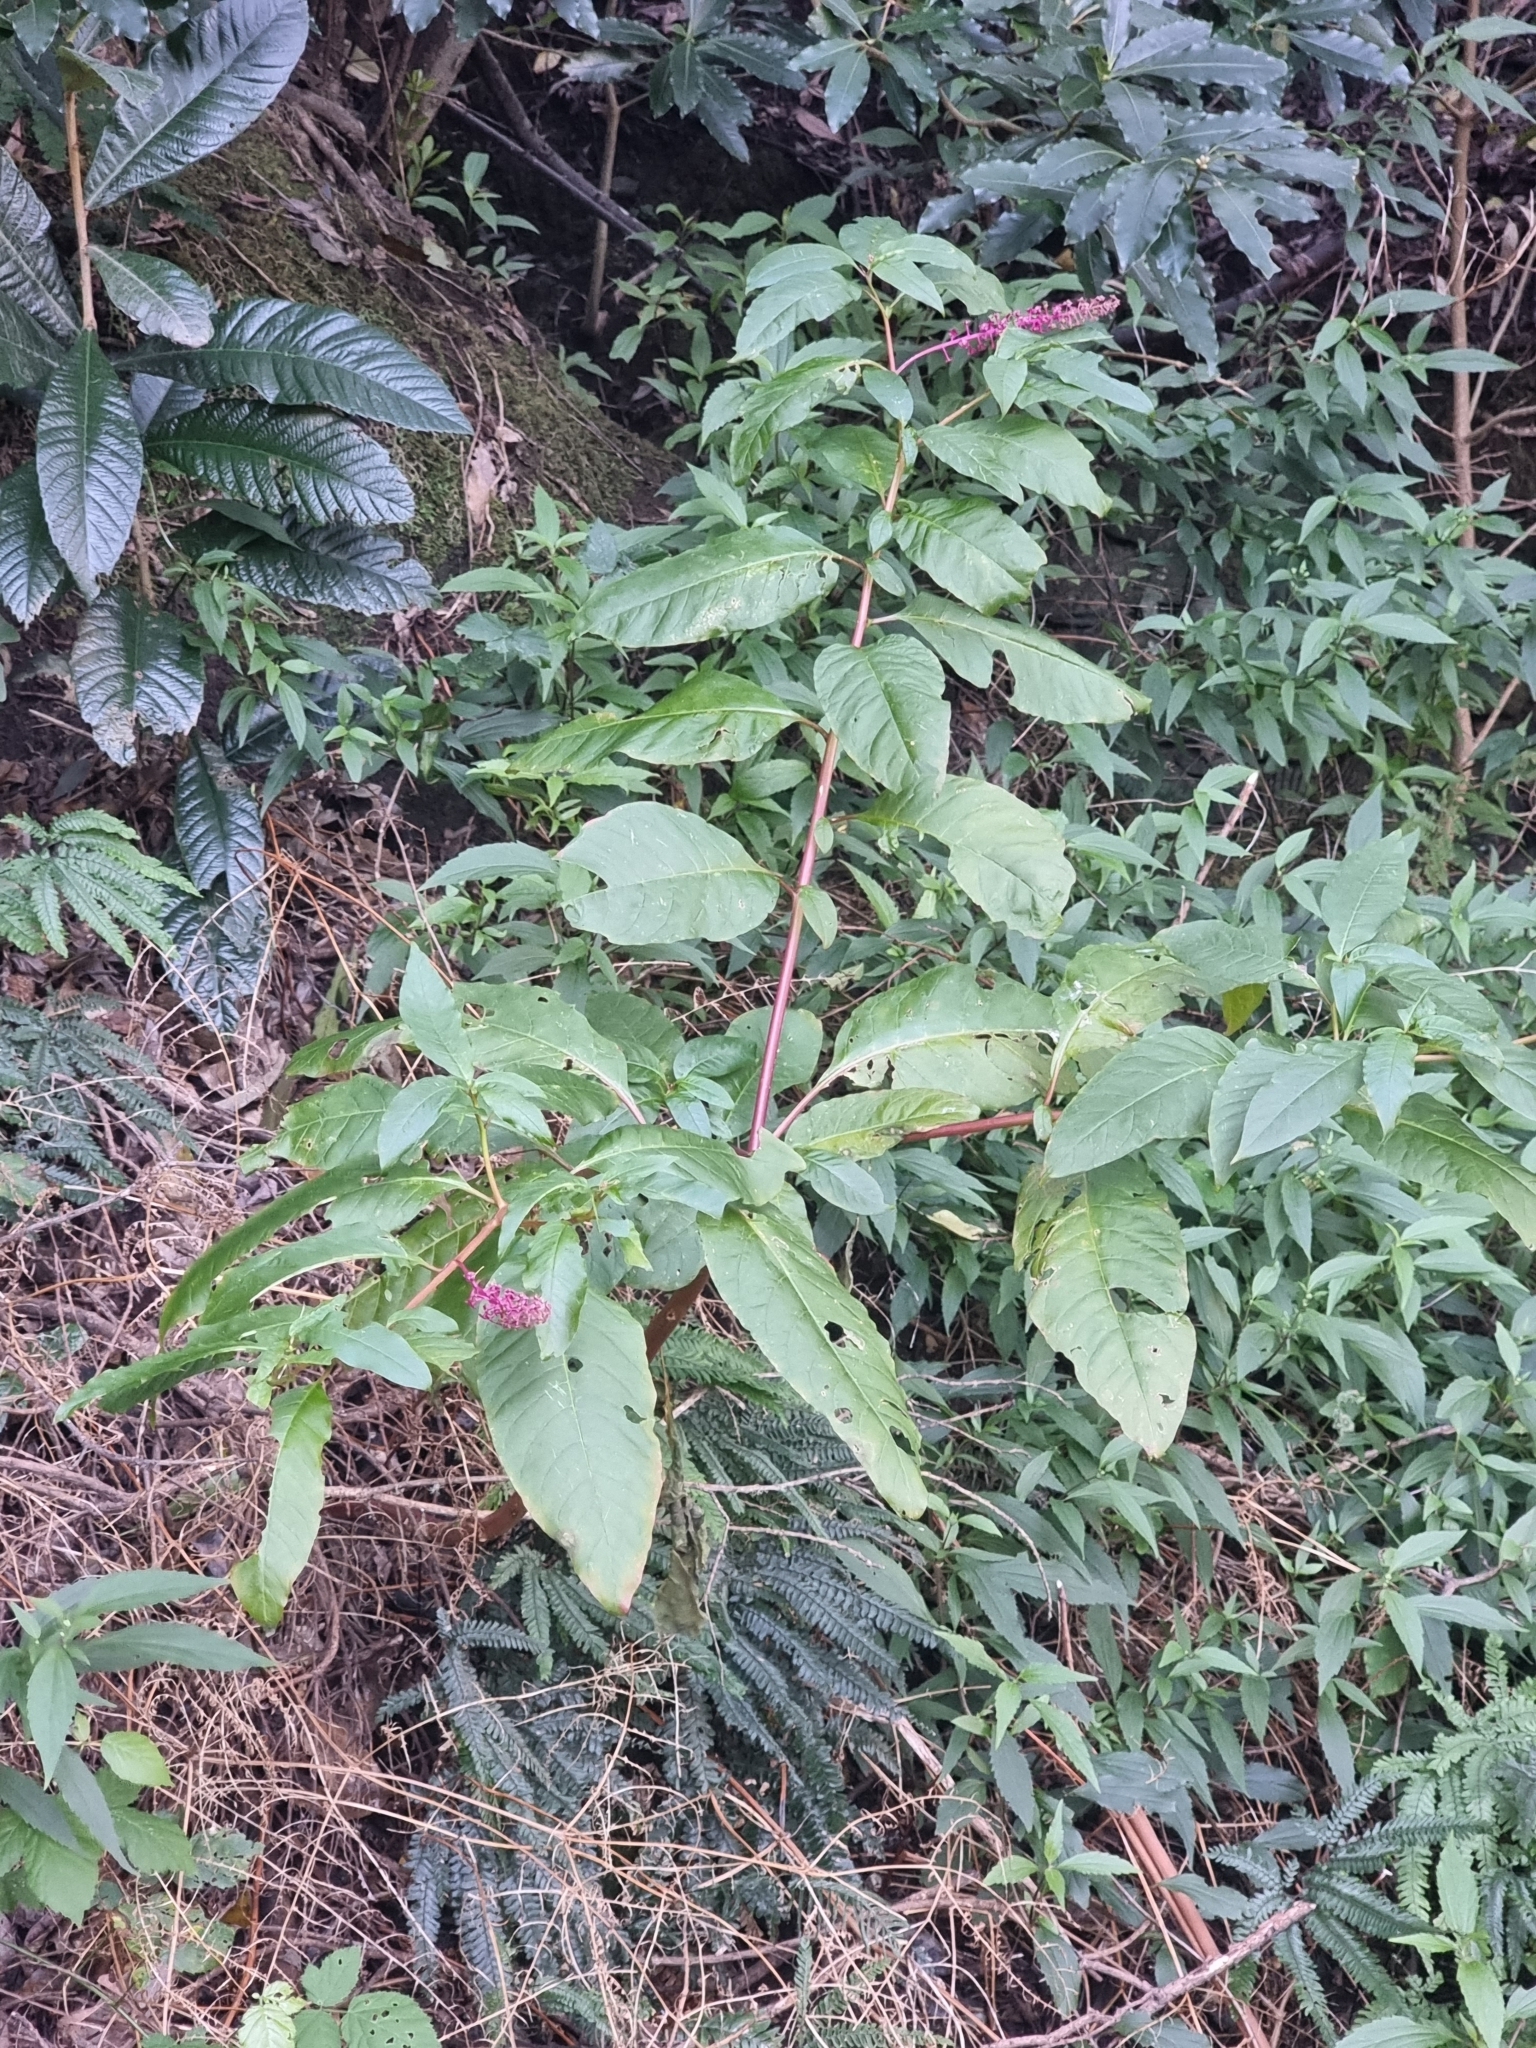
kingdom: Plantae
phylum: Tracheophyta
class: Magnoliopsida
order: Caryophyllales
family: Phytolaccaceae
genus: Phytolacca
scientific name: Phytolacca americana
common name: American pokeweed
